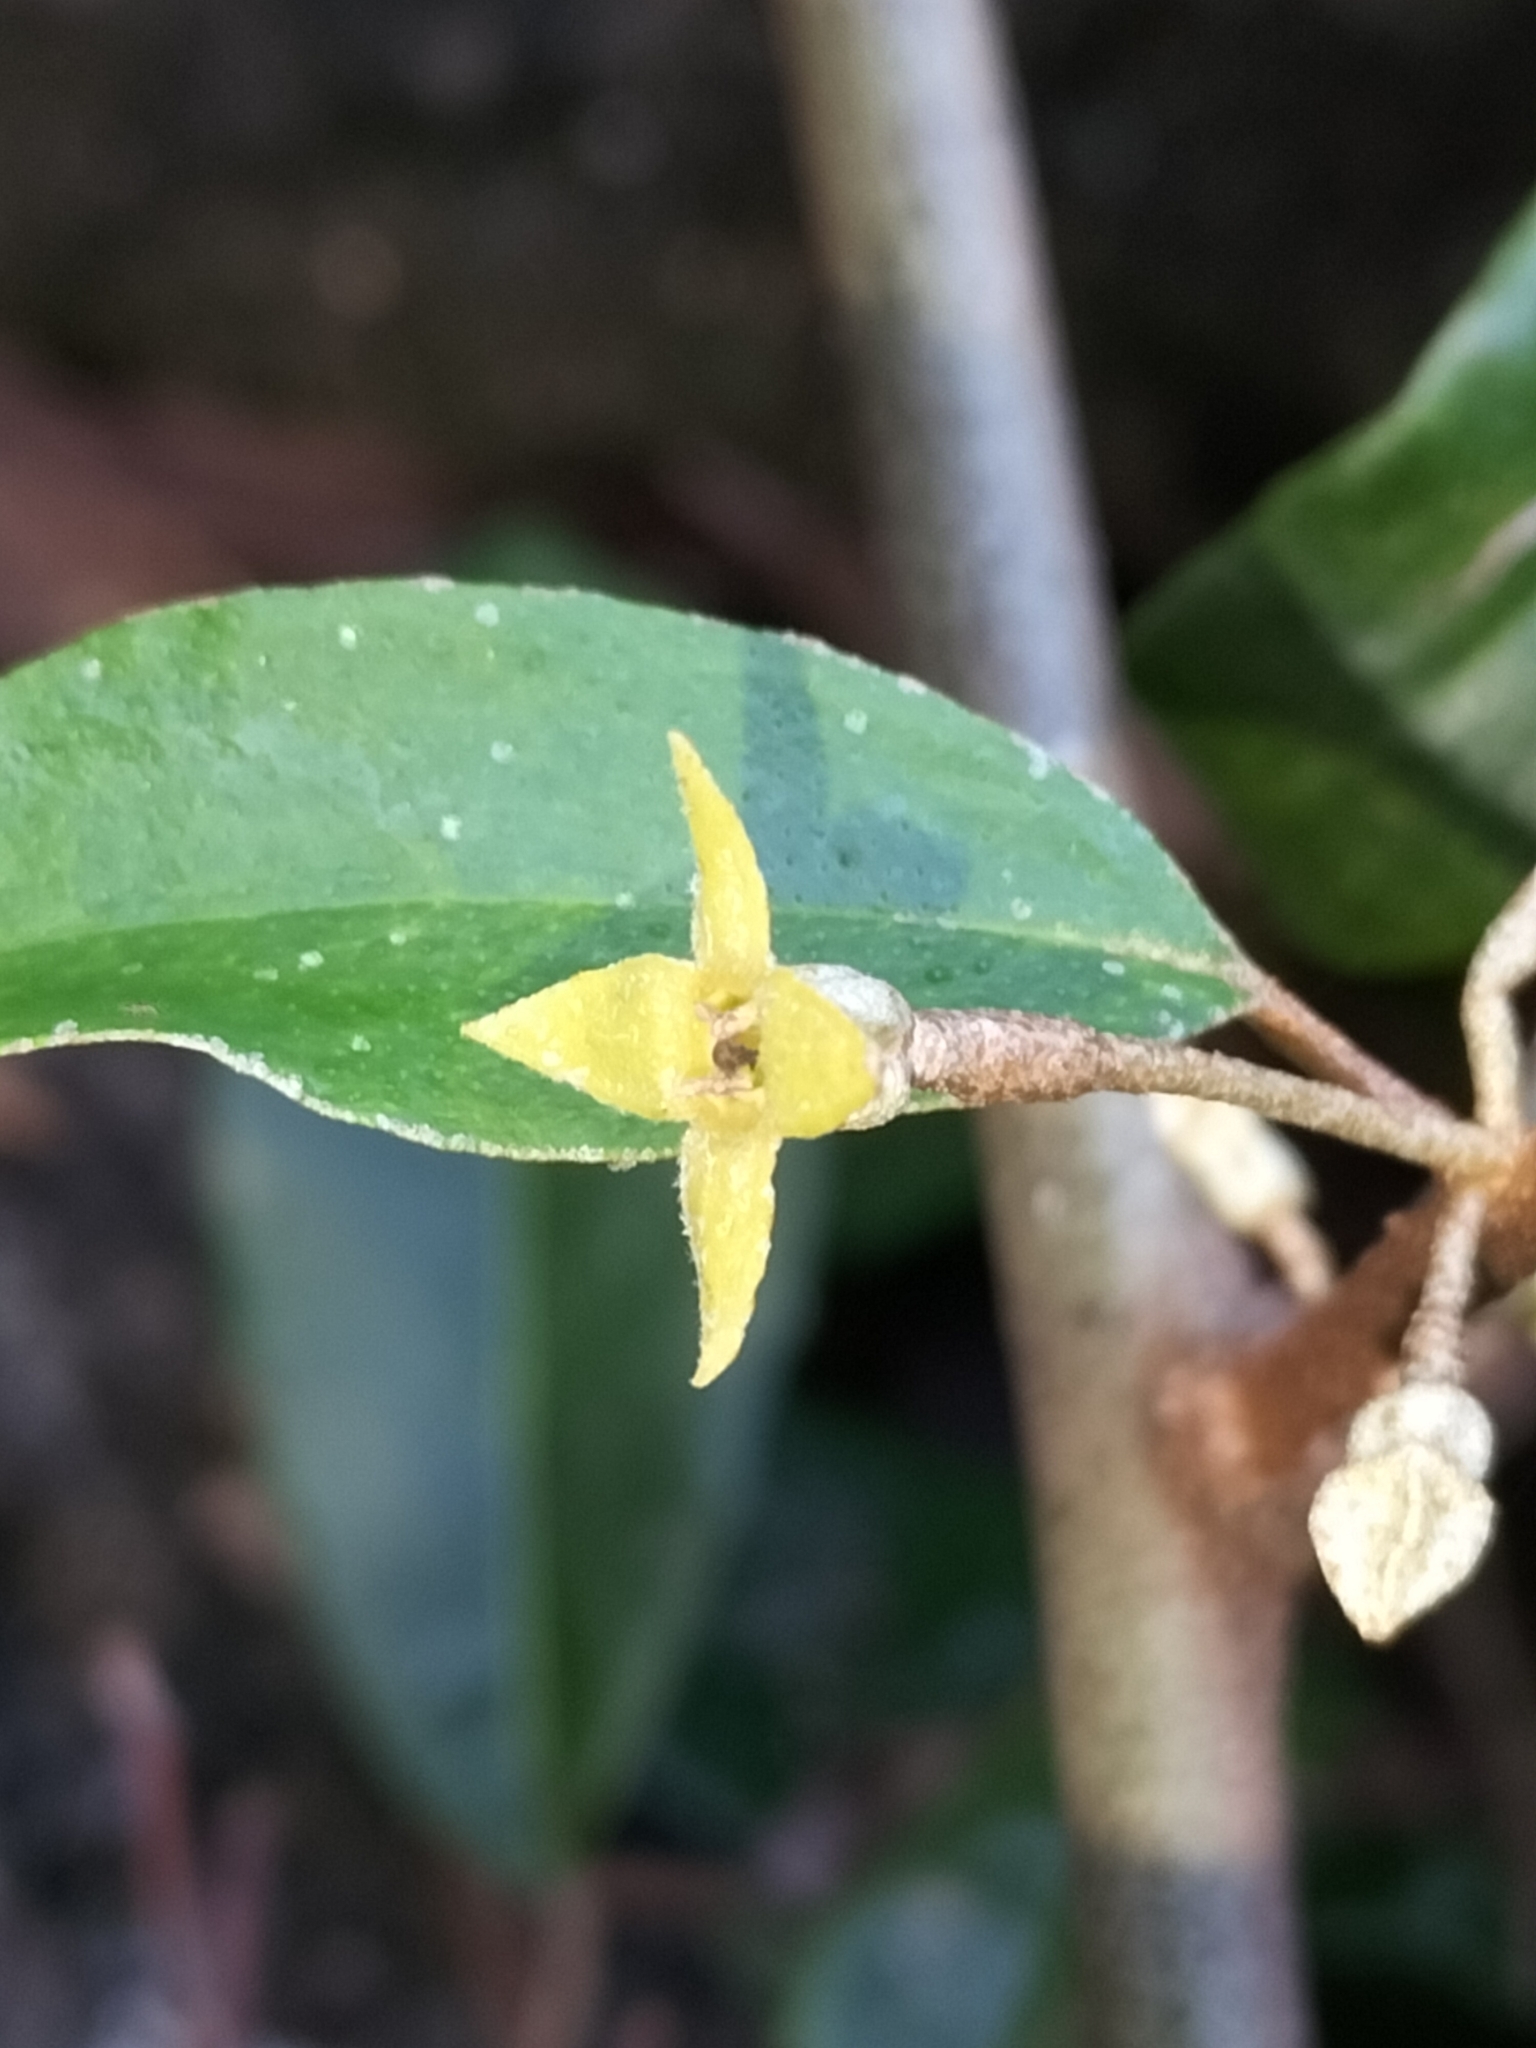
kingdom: Plantae
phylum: Tracheophyta
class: Magnoliopsida
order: Rosales
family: Elaeagnaceae
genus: Elaeagnus
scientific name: Elaeagnus triflora
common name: Millaa millaa-vine
